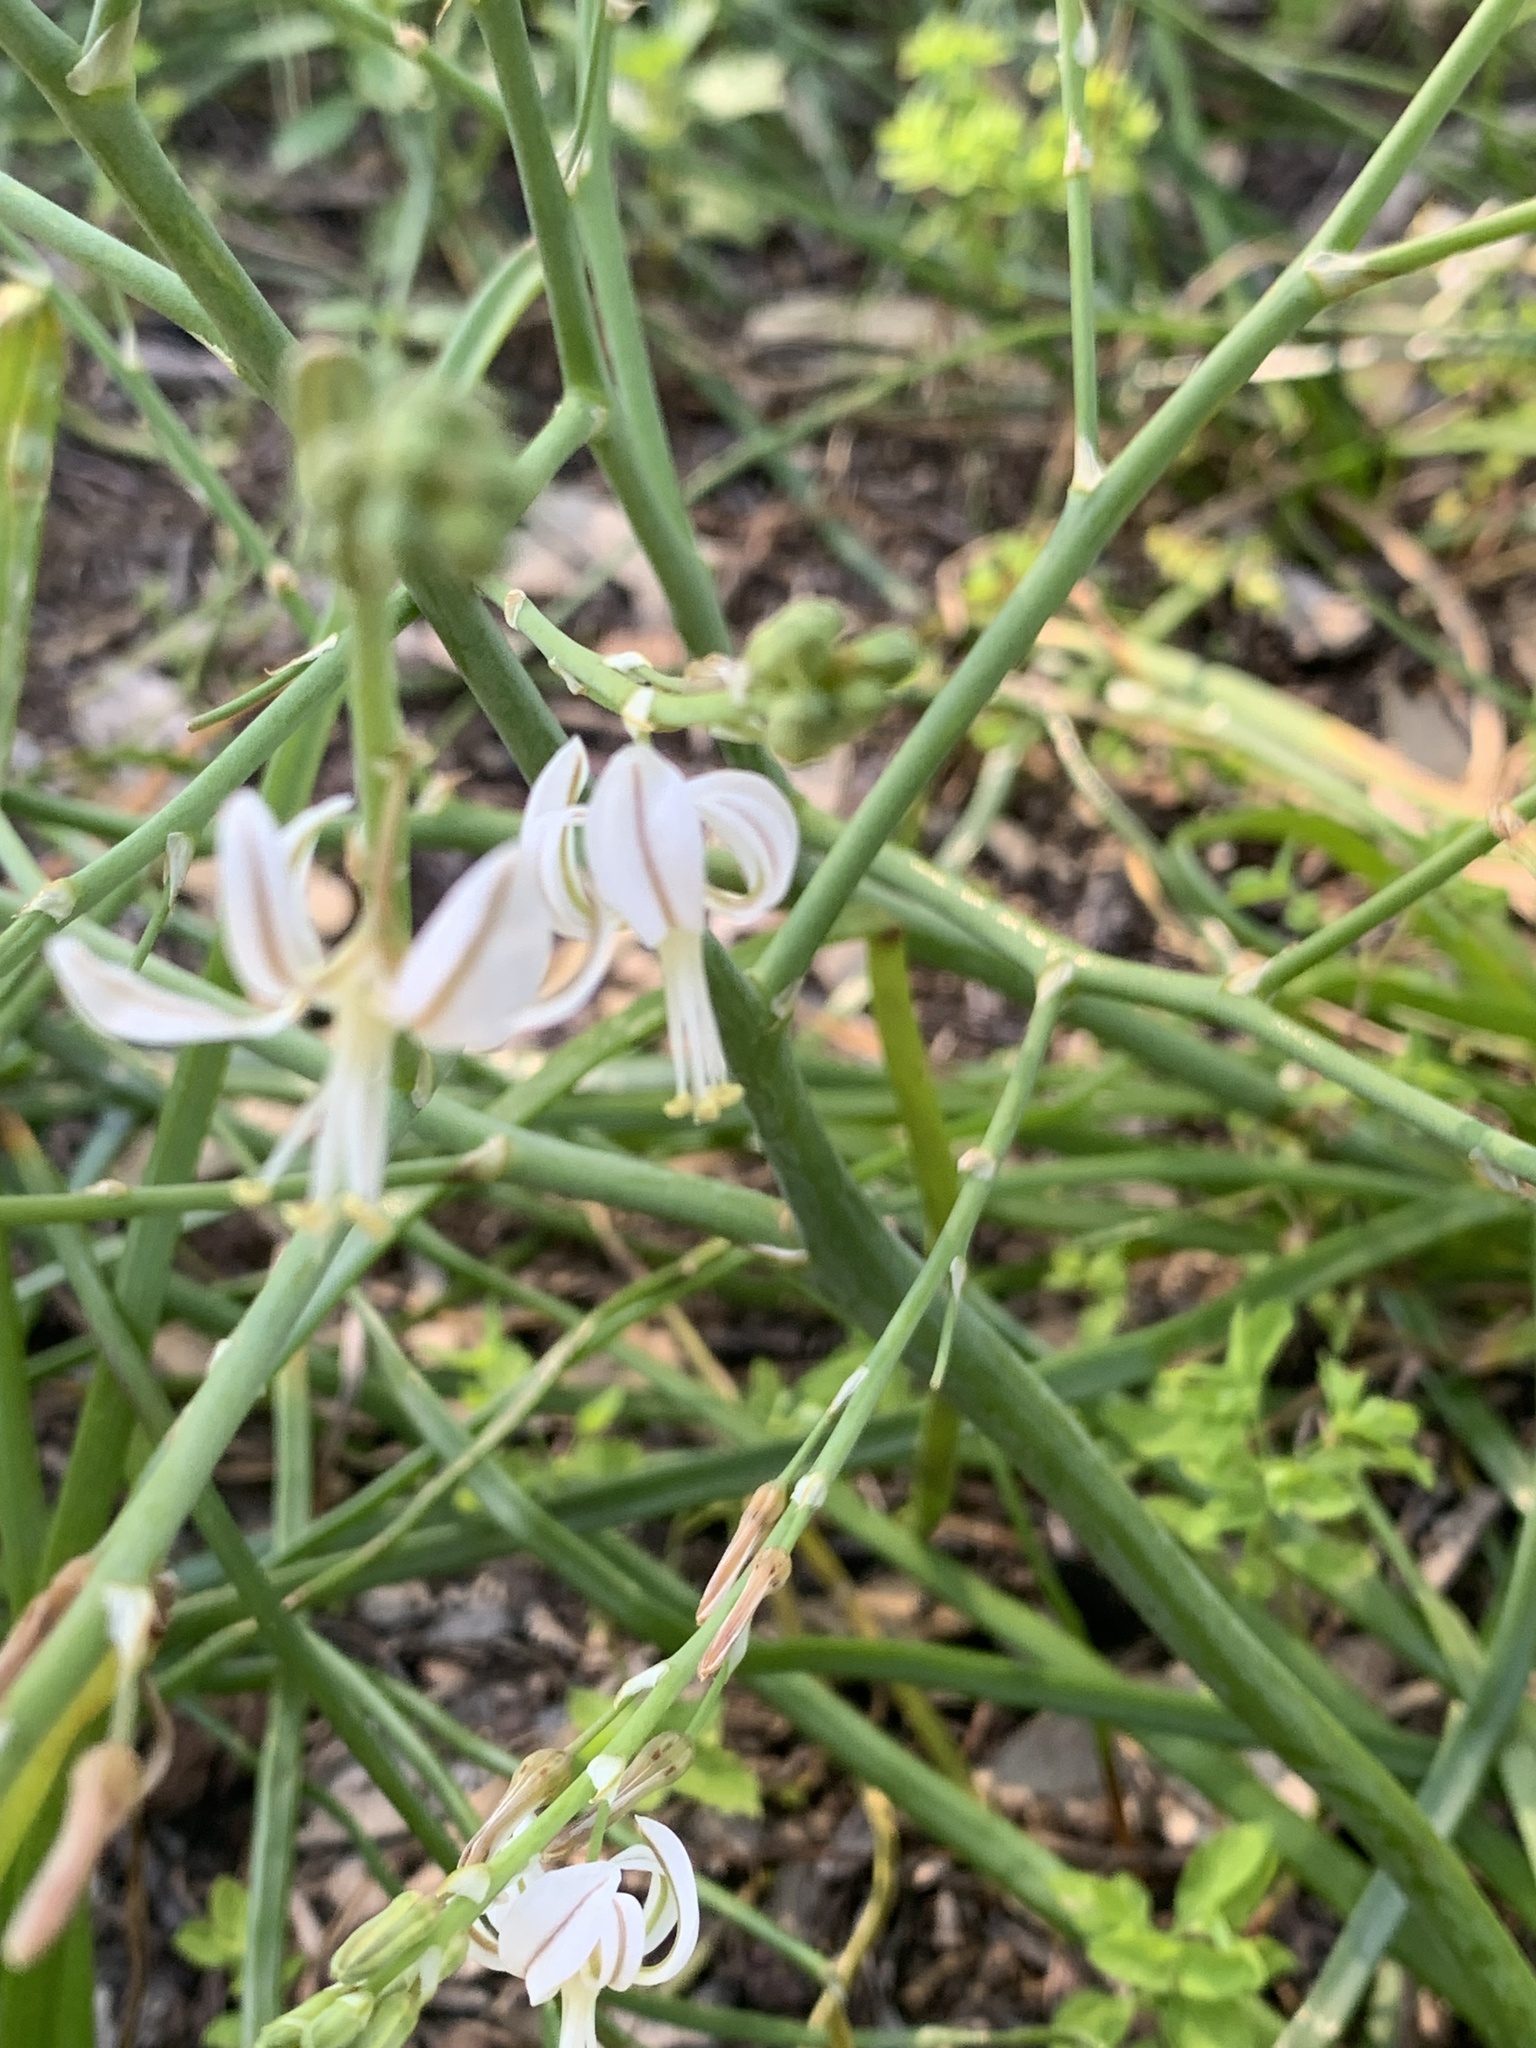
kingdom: Plantae
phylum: Tracheophyta
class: Liliopsida
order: Asparagales
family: Asphodelaceae
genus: Trachyandra
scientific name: Trachyandra divaricata
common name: Dune onionweed
